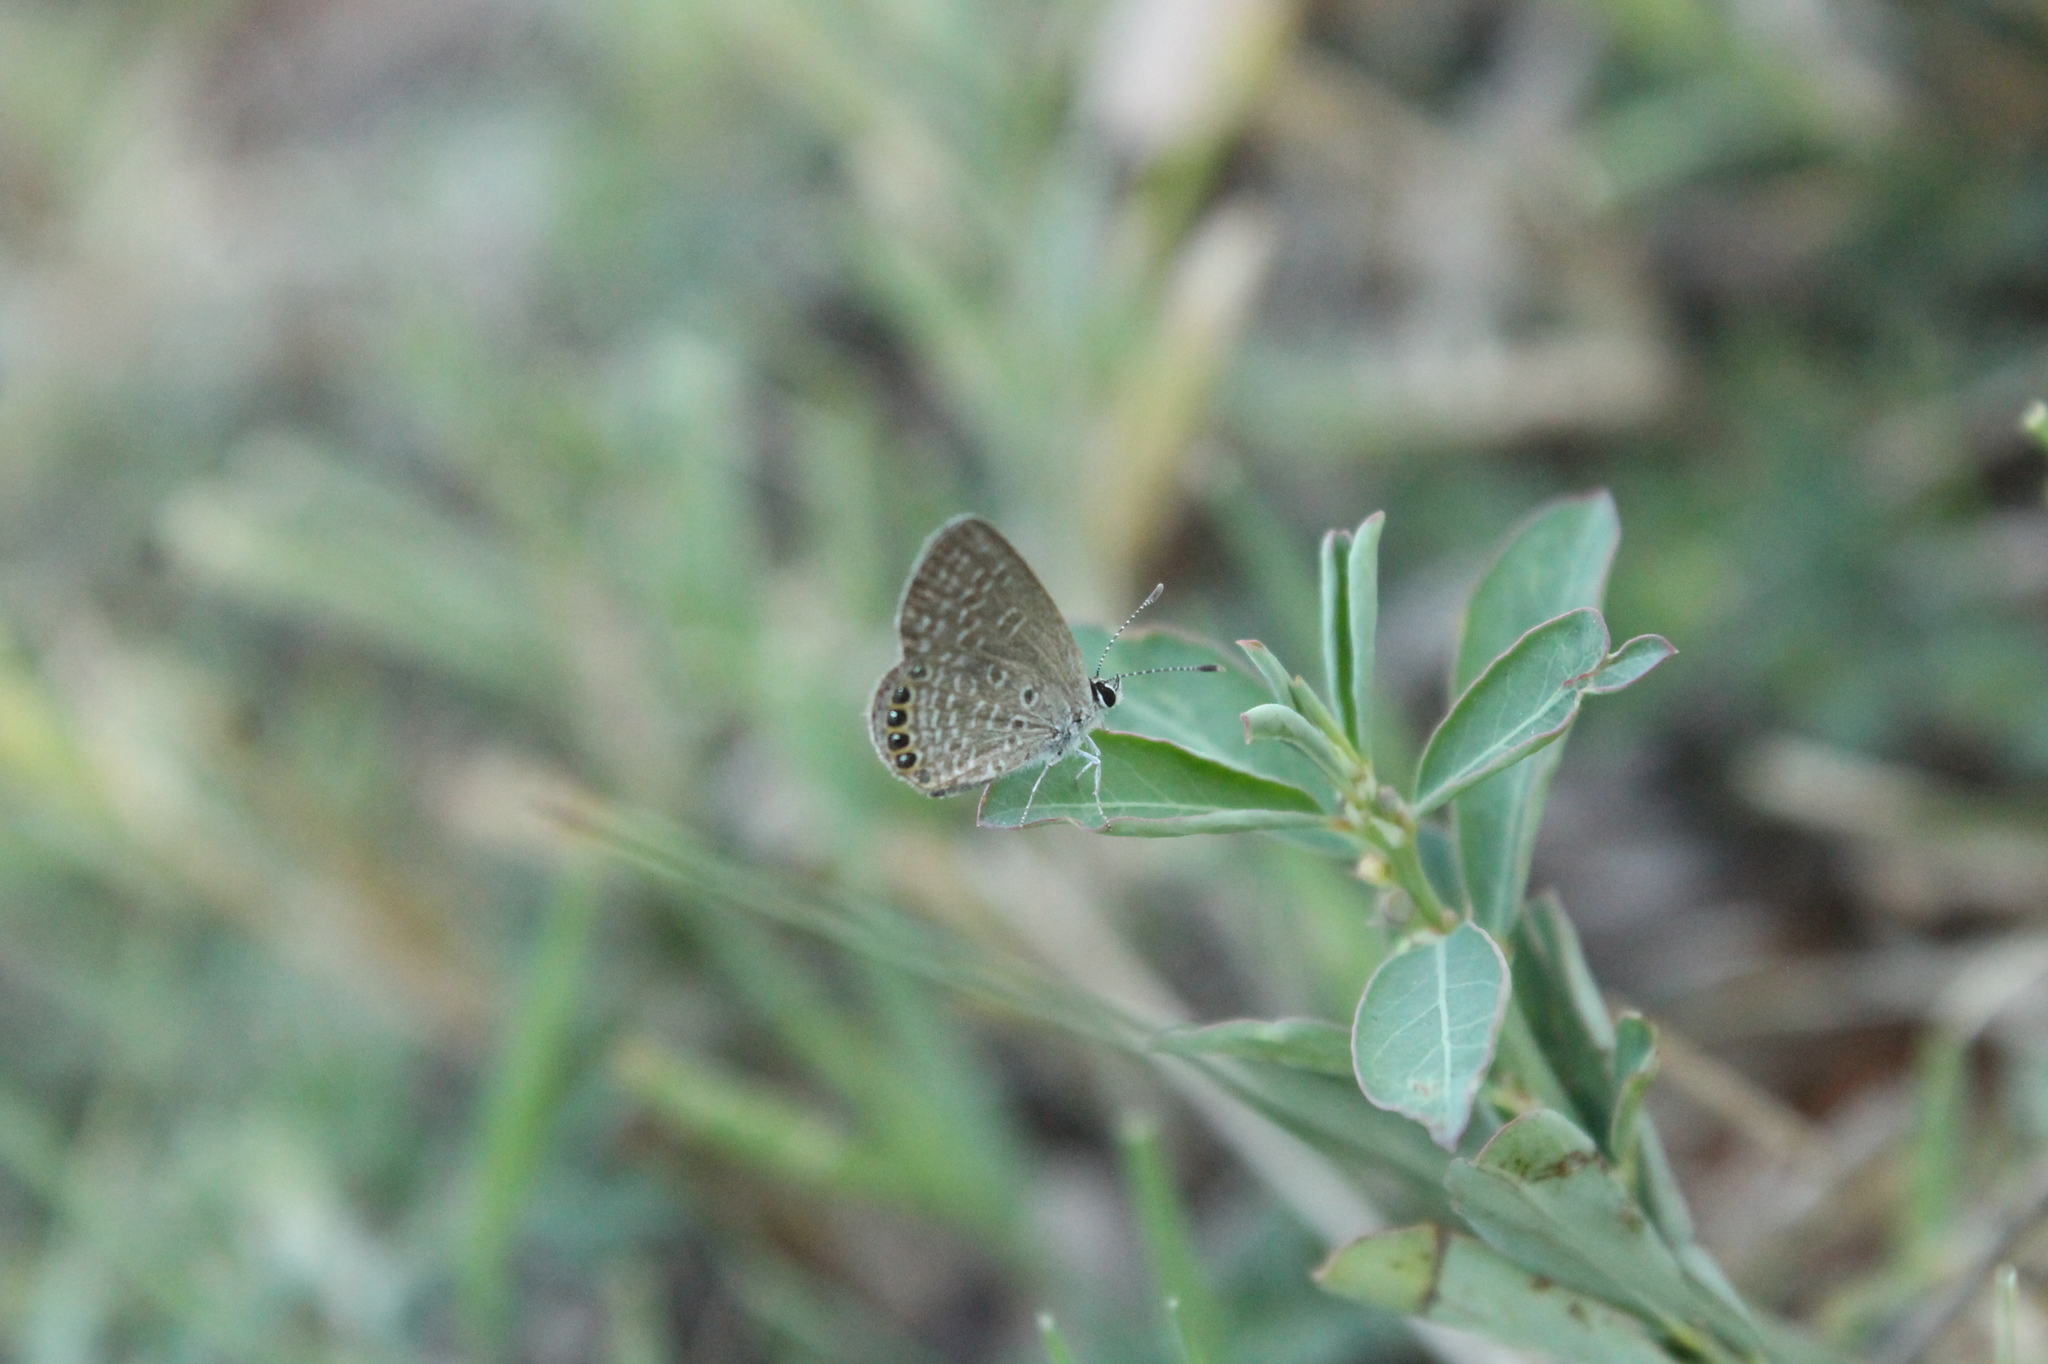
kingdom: Animalia
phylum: Arthropoda
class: Insecta
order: Lepidoptera
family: Lycaenidae
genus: Freyeria
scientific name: Freyeria putli
